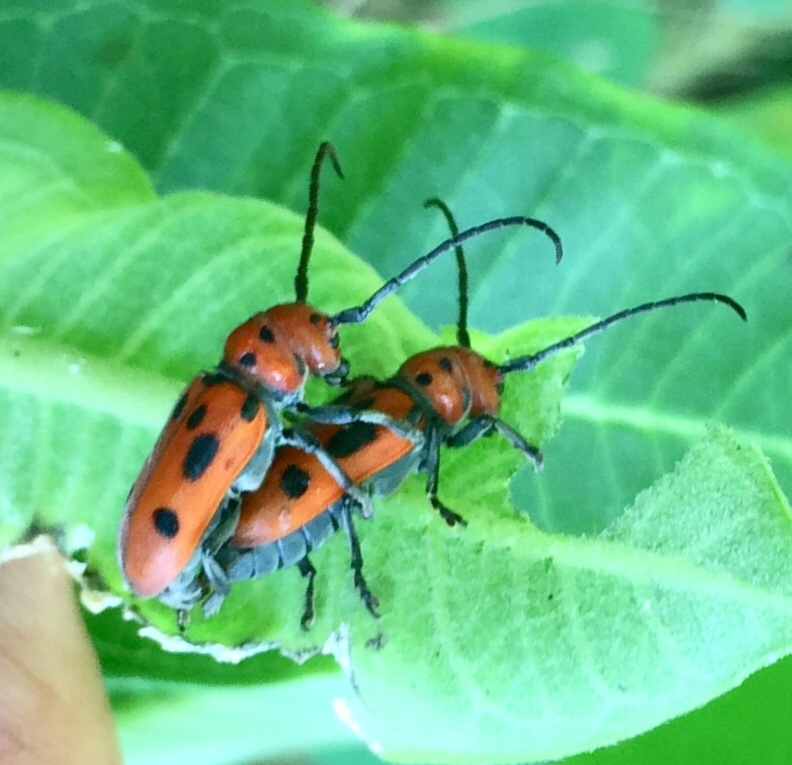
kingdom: Animalia
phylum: Arthropoda
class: Insecta
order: Coleoptera
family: Cerambycidae
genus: Tetraopes
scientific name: Tetraopes tetrophthalmus
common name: Red milkweed beetle
